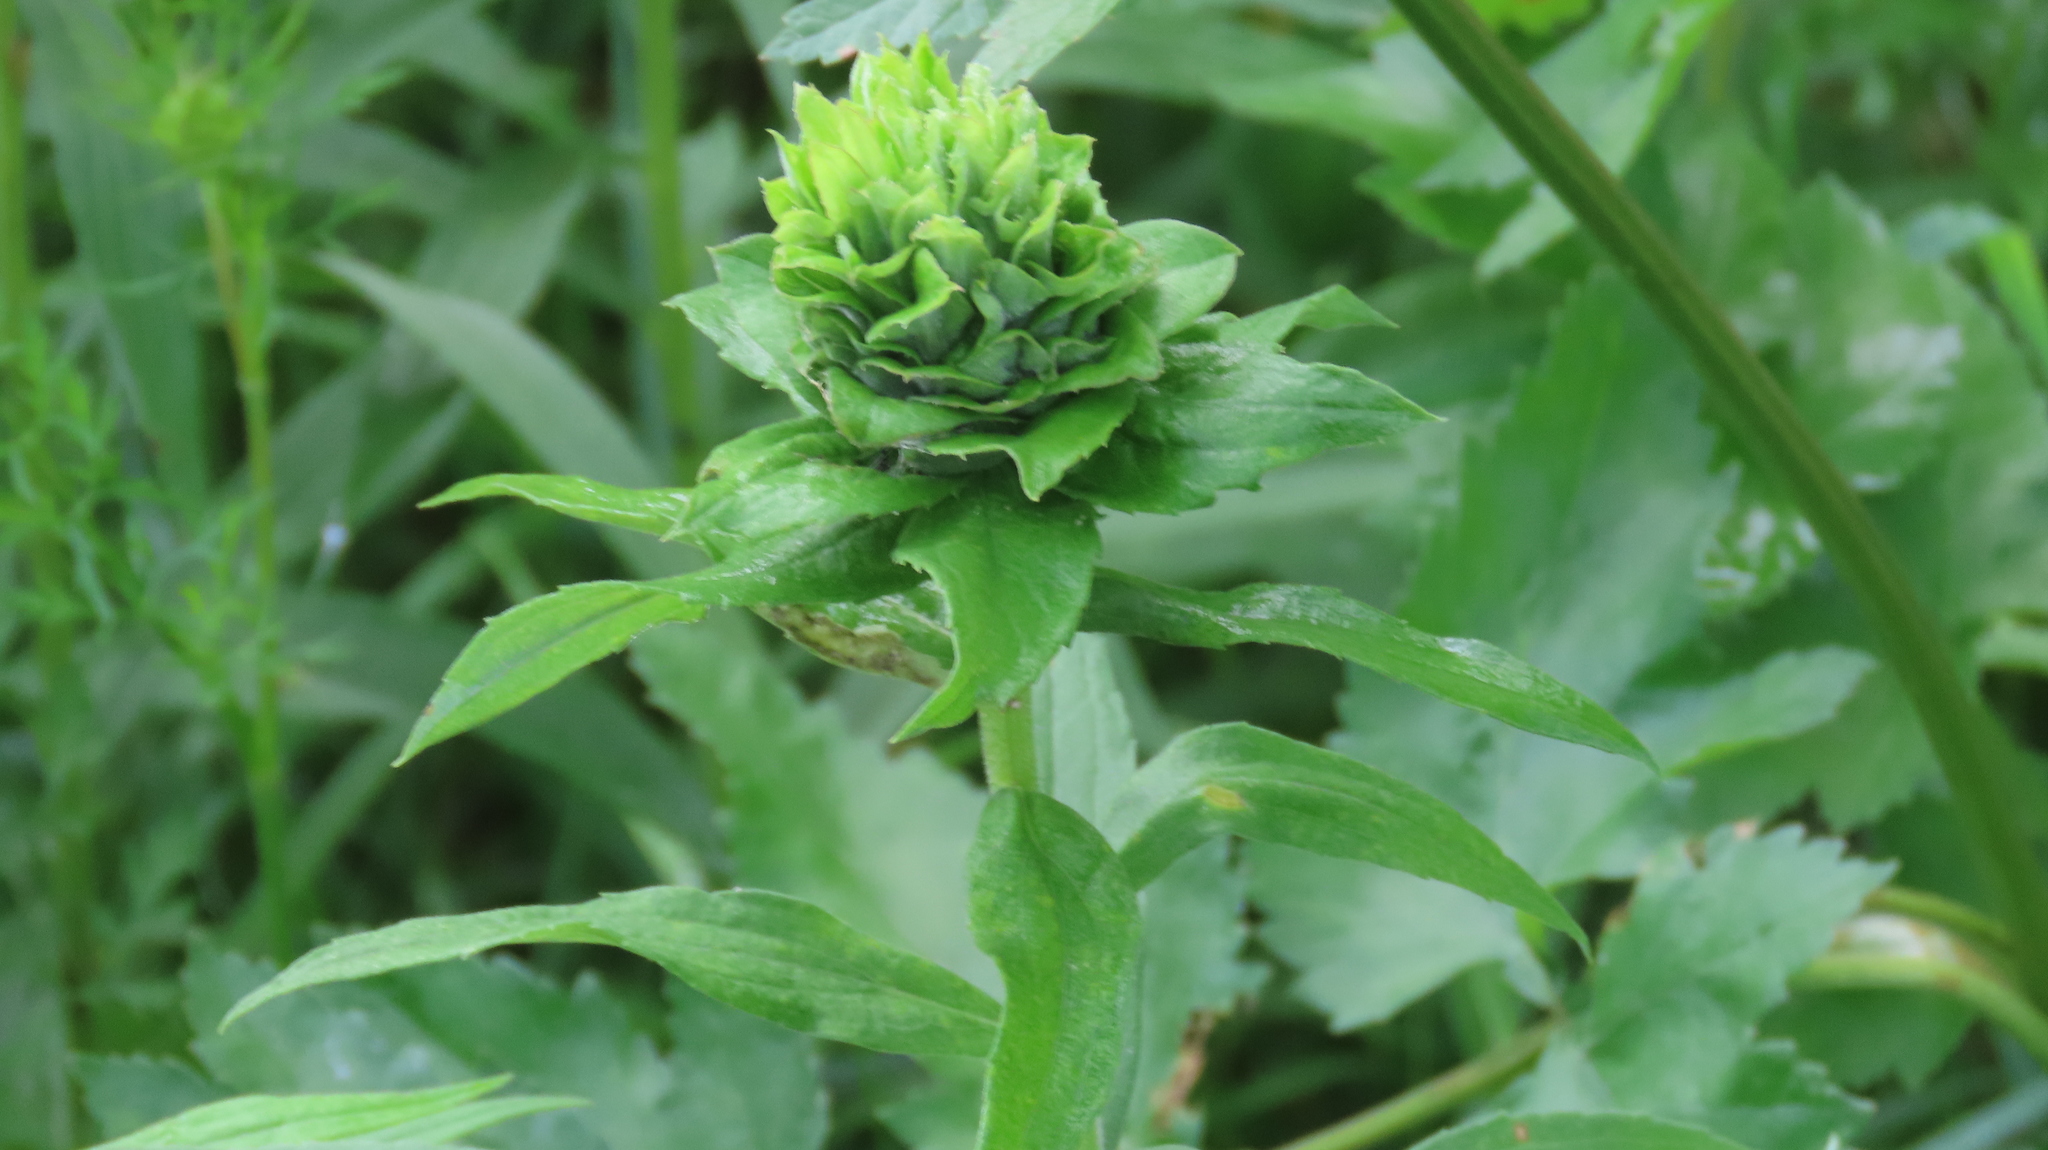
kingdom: Animalia
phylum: Arthropoda
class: Insecta
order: Diptera
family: Cecidomyiidae
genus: Rhopalomyia
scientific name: Rhopalomyia solidaginis
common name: Goldenrod bunch gall midge
